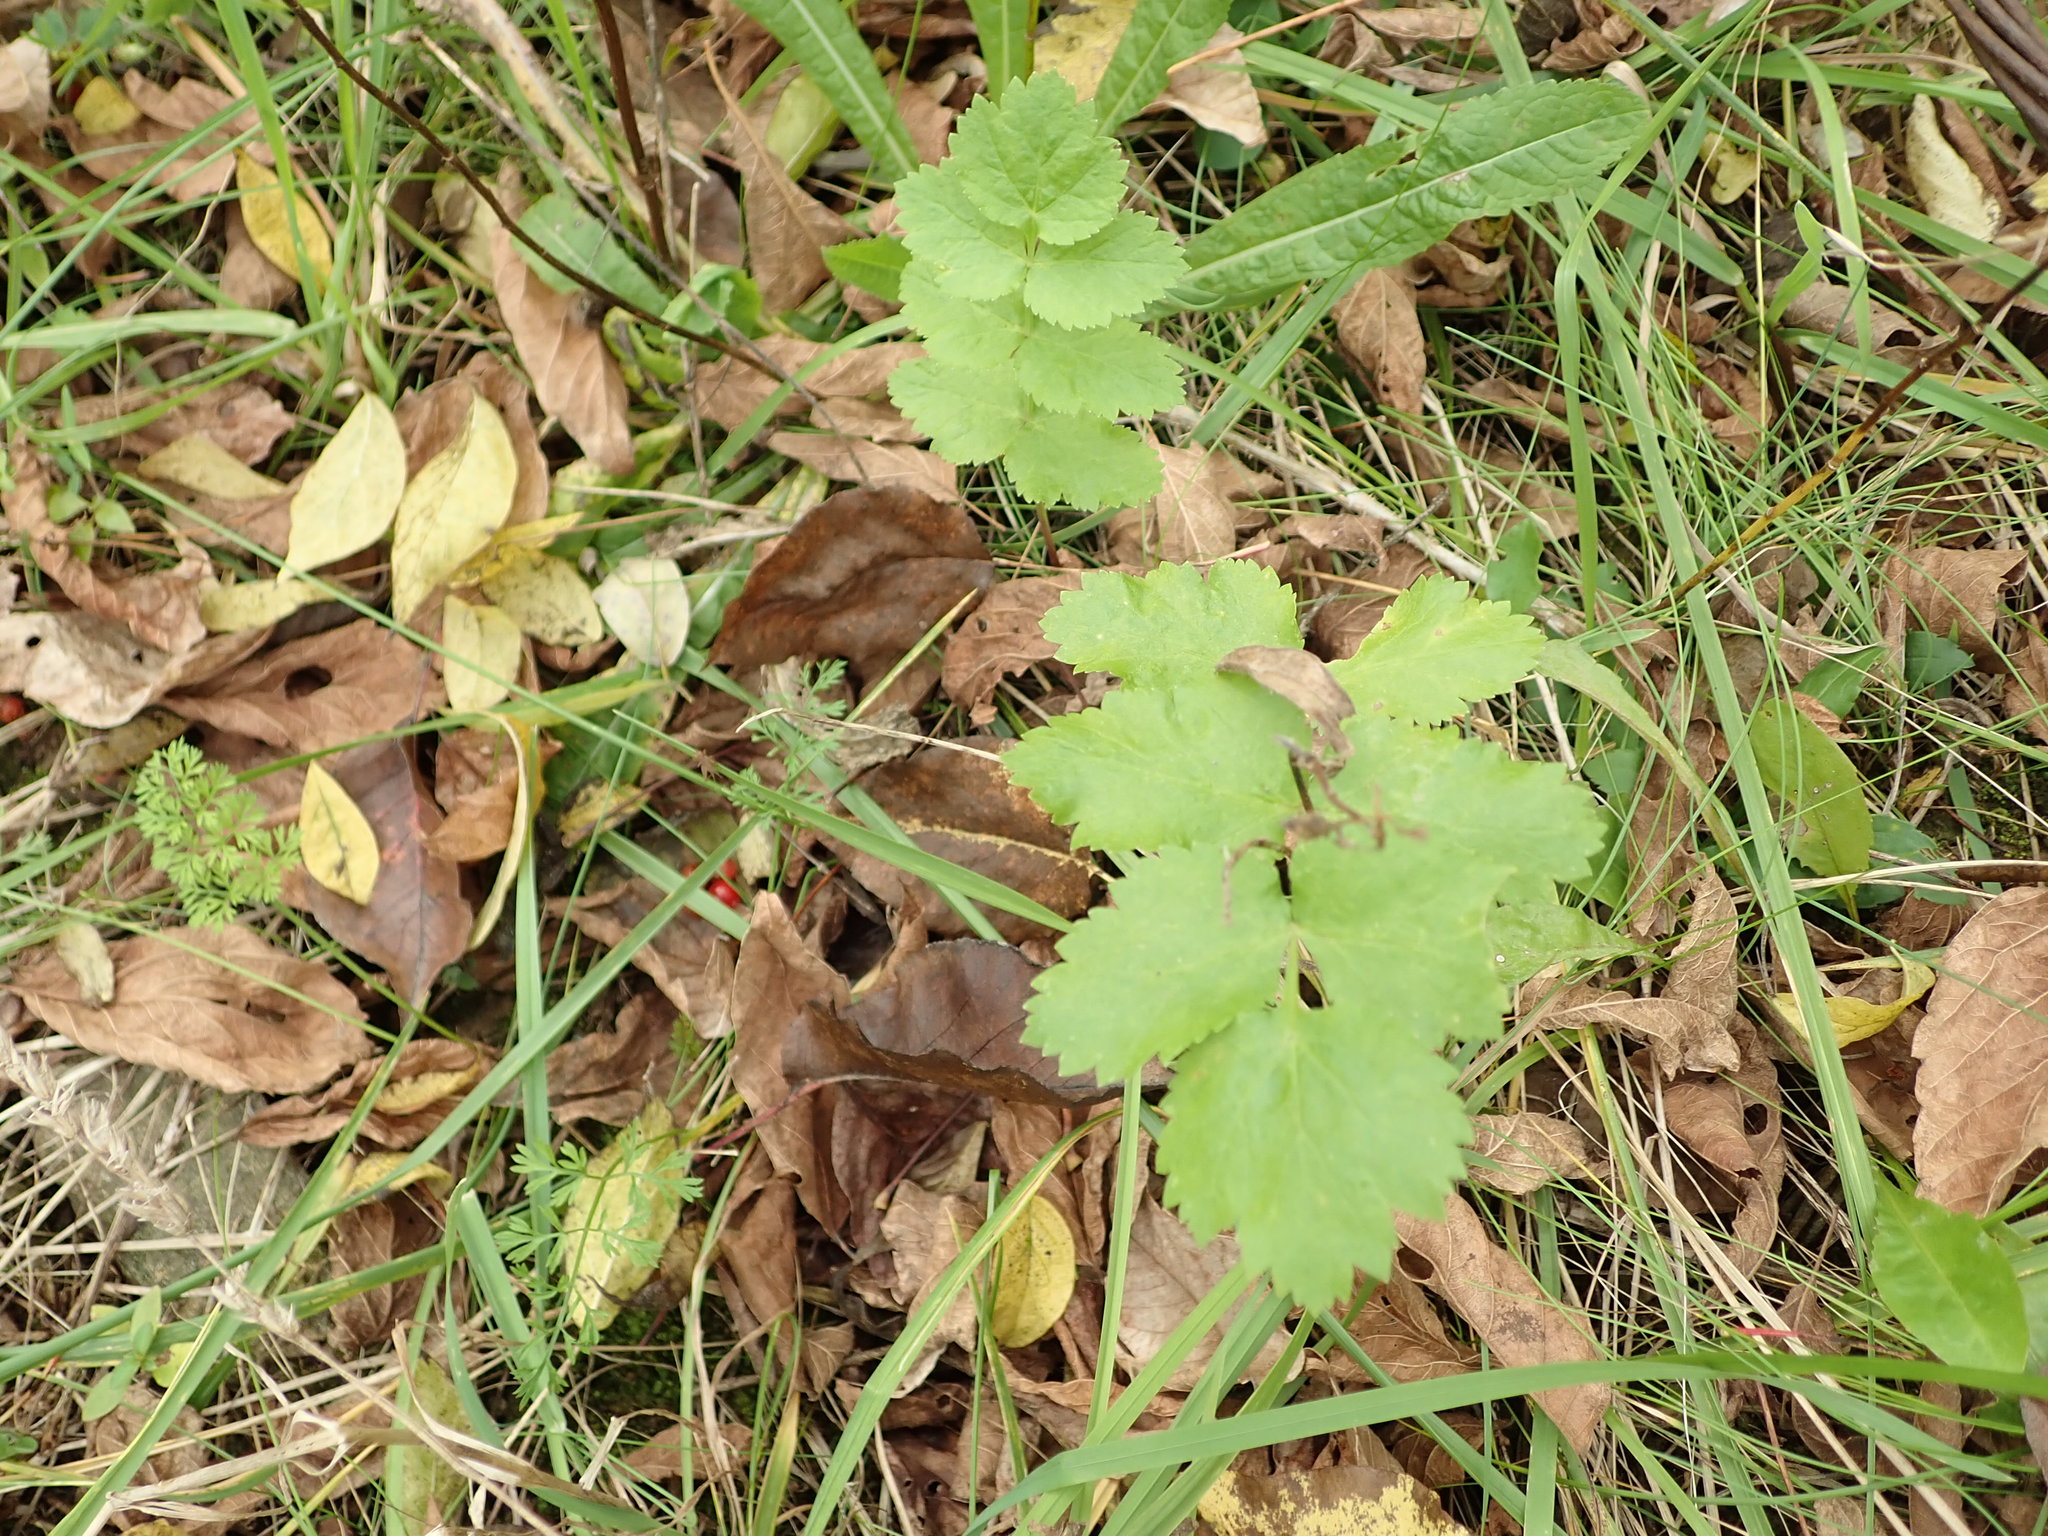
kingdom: Plantae
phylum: Tracheophyta
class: Magnoliopsida
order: Apiales
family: Apiaceae
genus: Pastinaca
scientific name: Pastinaca sativa
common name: Wild parsnip
